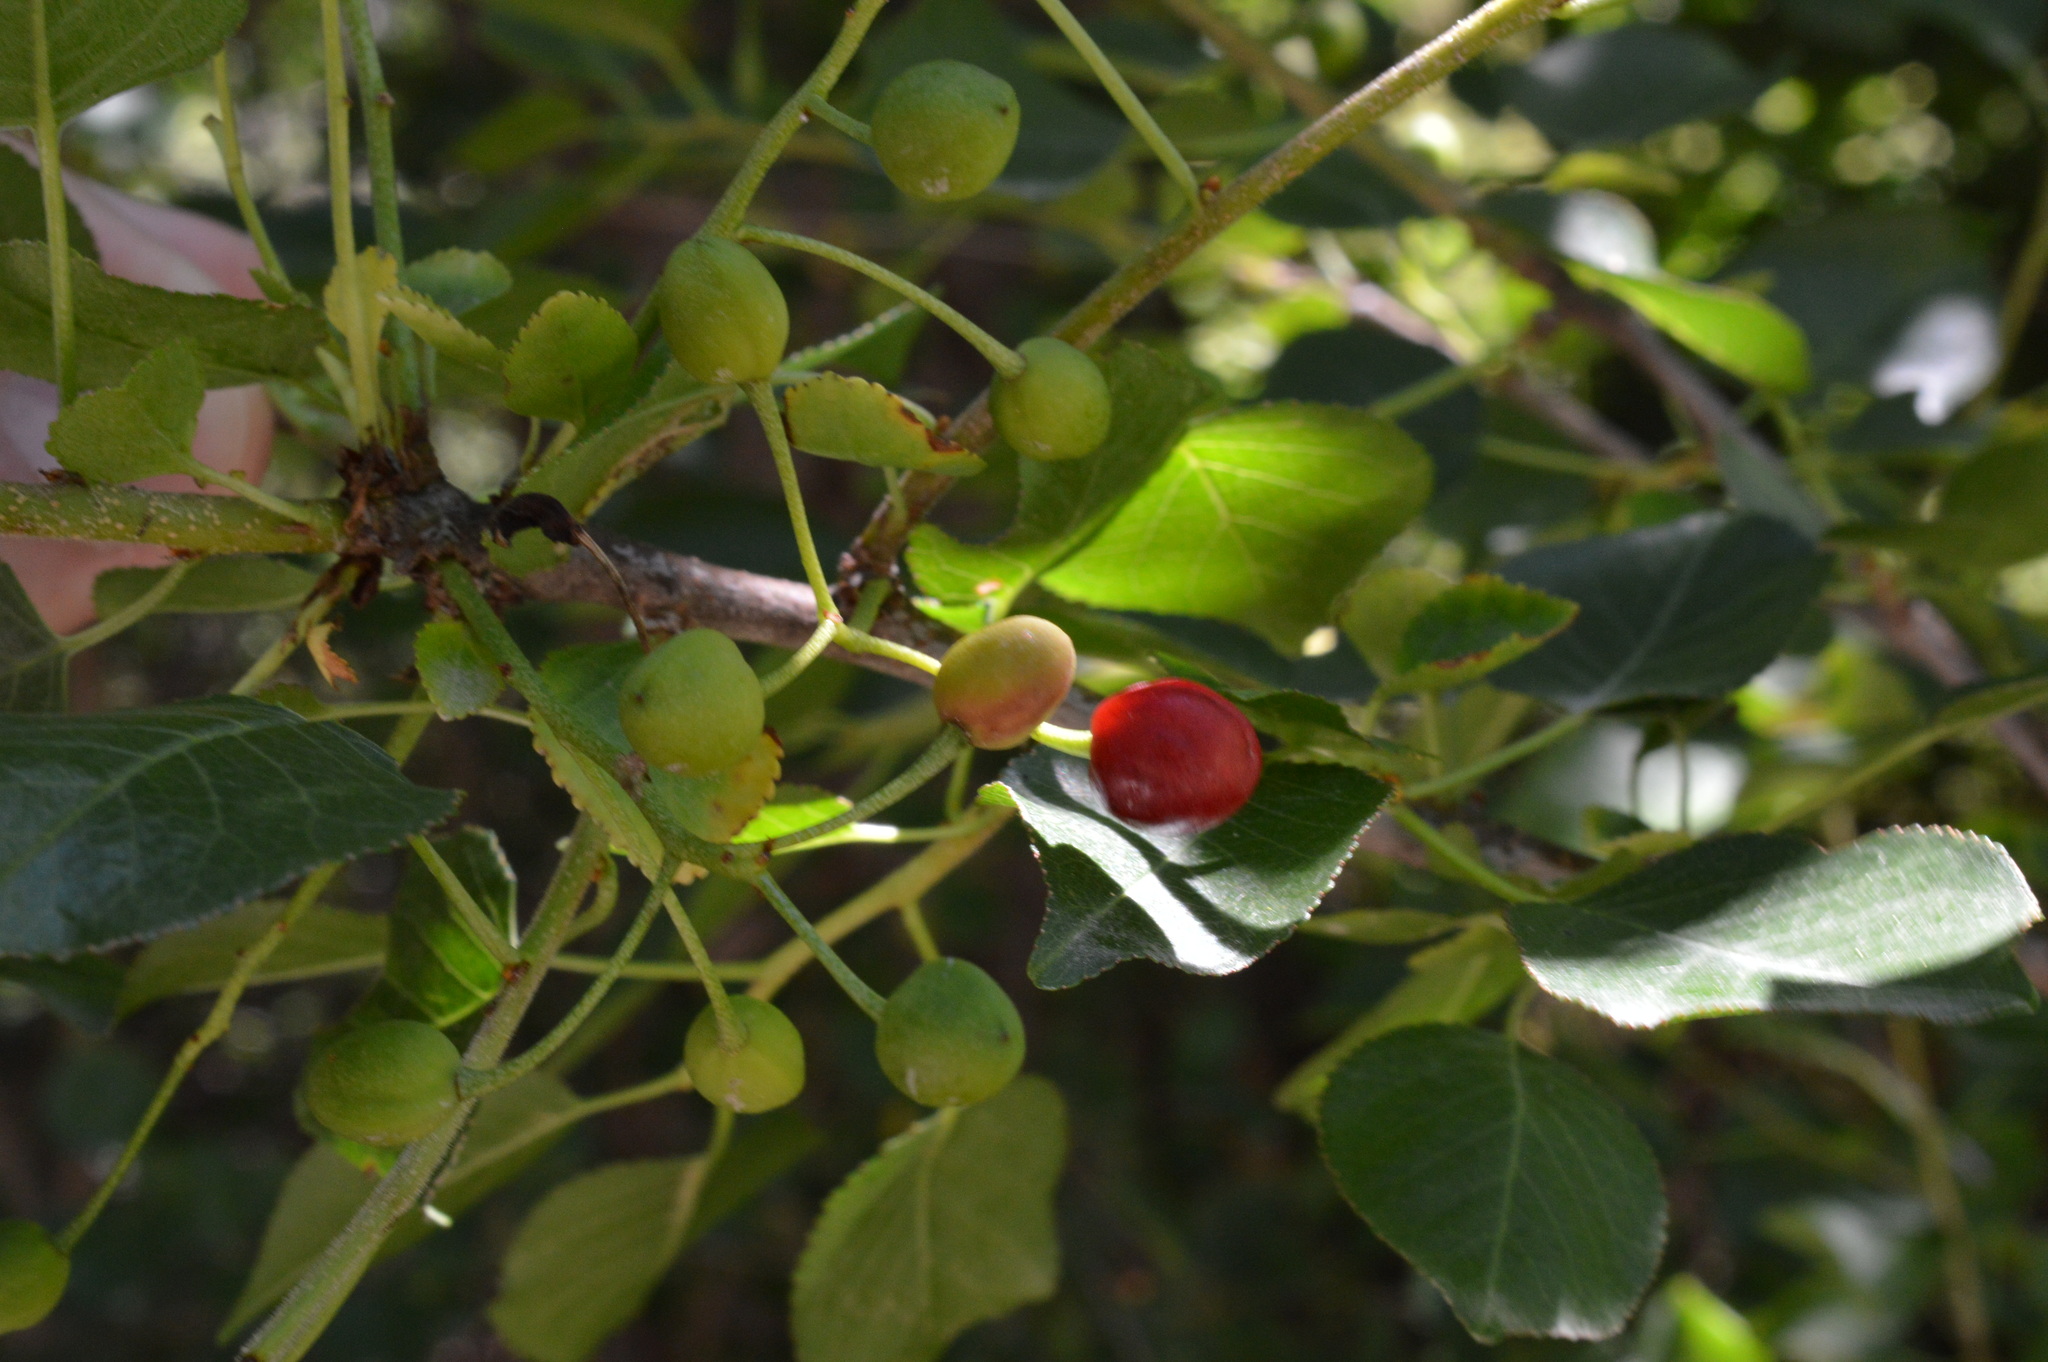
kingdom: Plantae
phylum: Tracheophyta
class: Magnoliopsida
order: Rosales
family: Rosaceae
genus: Prunus
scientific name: Prunus mahaleb
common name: Mahaleb cherry
